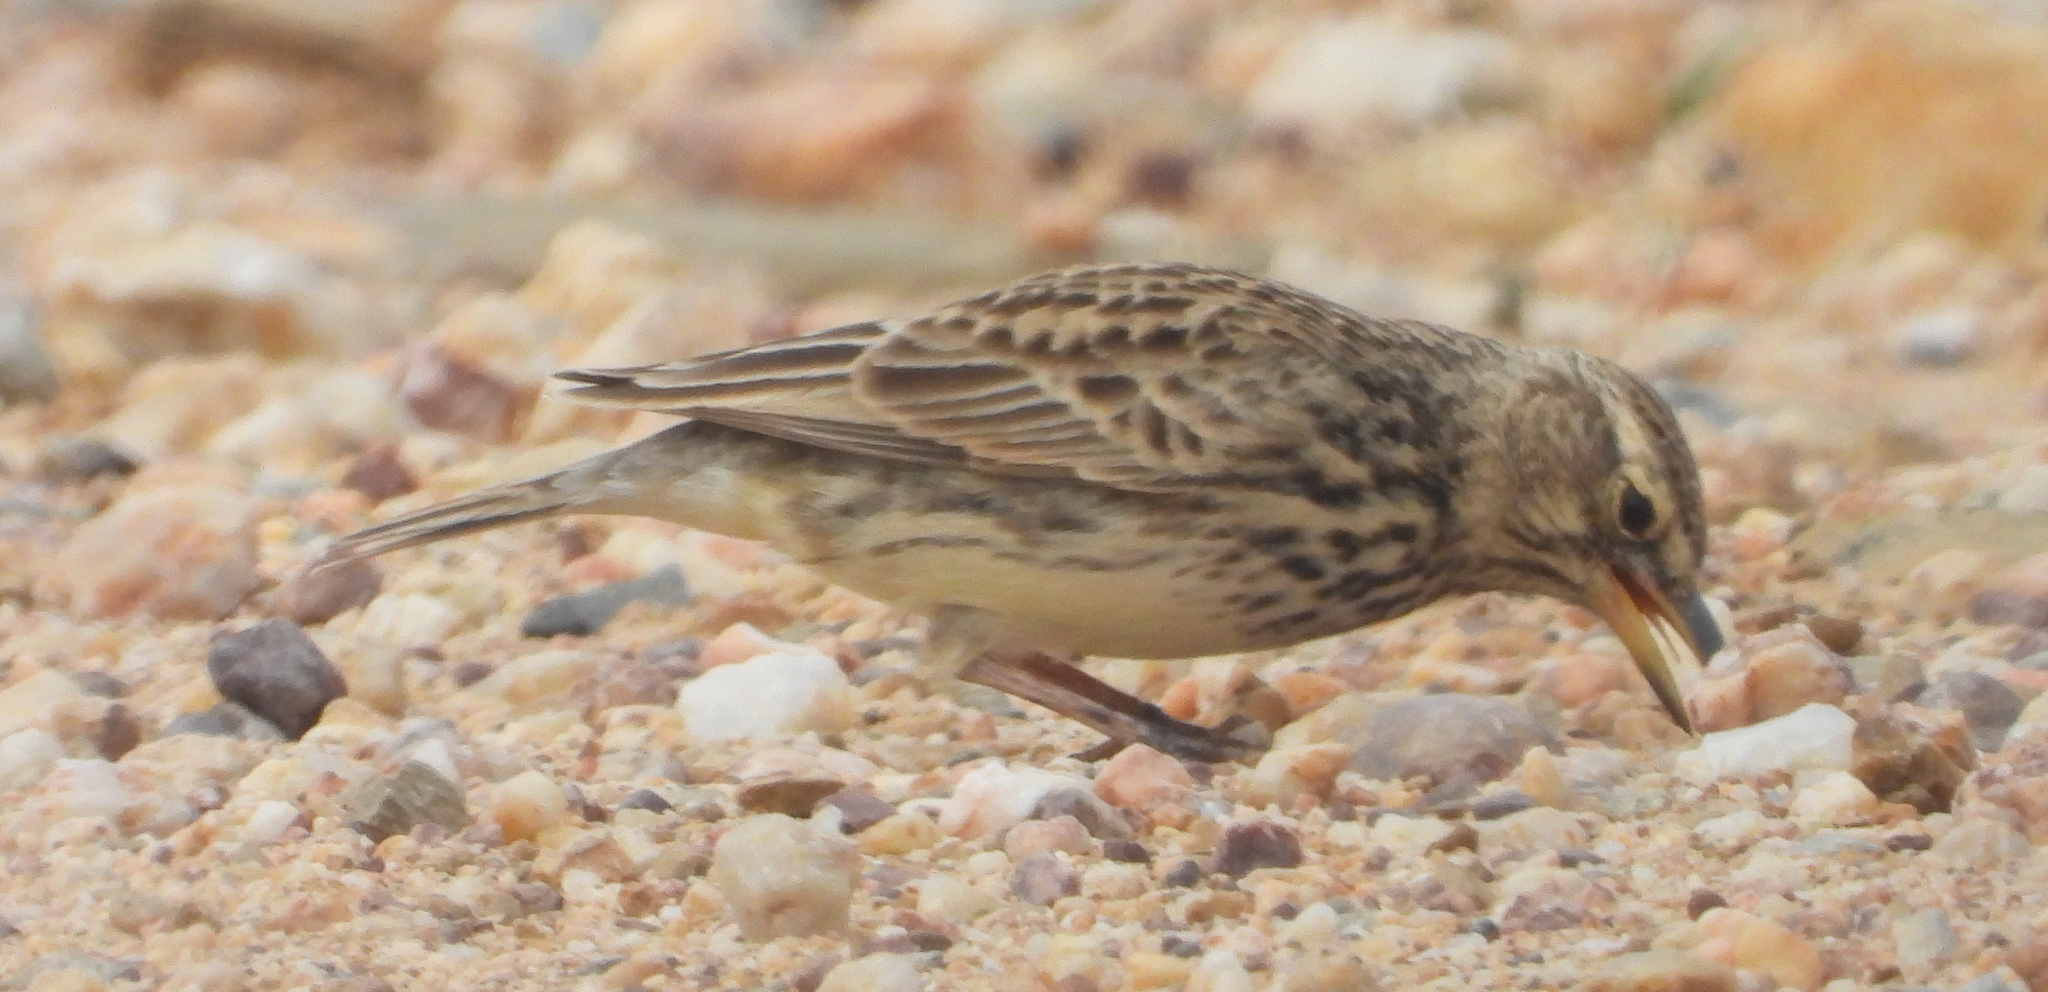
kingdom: Animalia
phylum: Chordata
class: Aves
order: Passeriformes
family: Alaudidae
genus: Galerida
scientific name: Galerida magnirostris
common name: Large-billed lark
